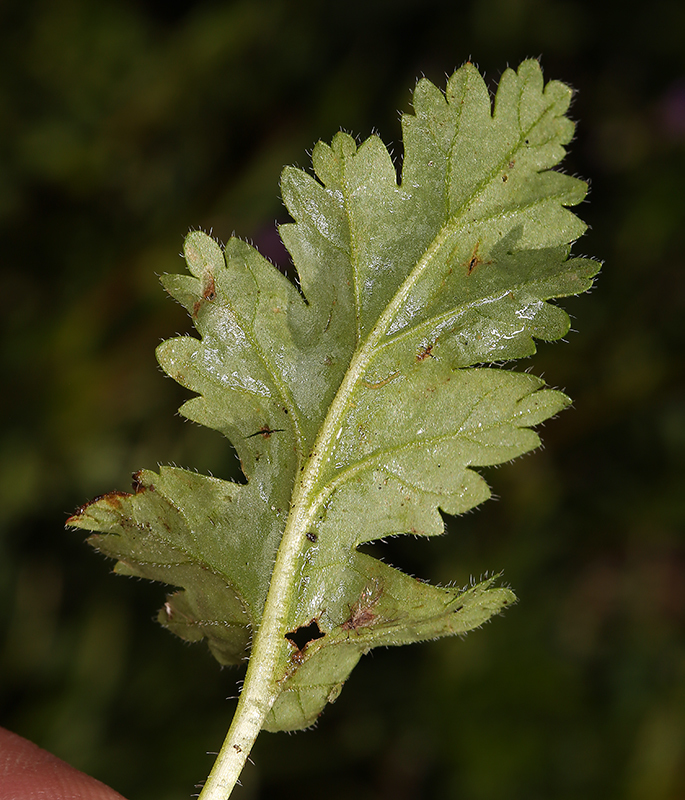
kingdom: Plantae
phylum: Tracheophyta
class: Magnoliopsida
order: Geraniales
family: Geraniaceae
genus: Erodium
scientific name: Erodium brachycarpum
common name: Hairy-pitted stork's-bill
